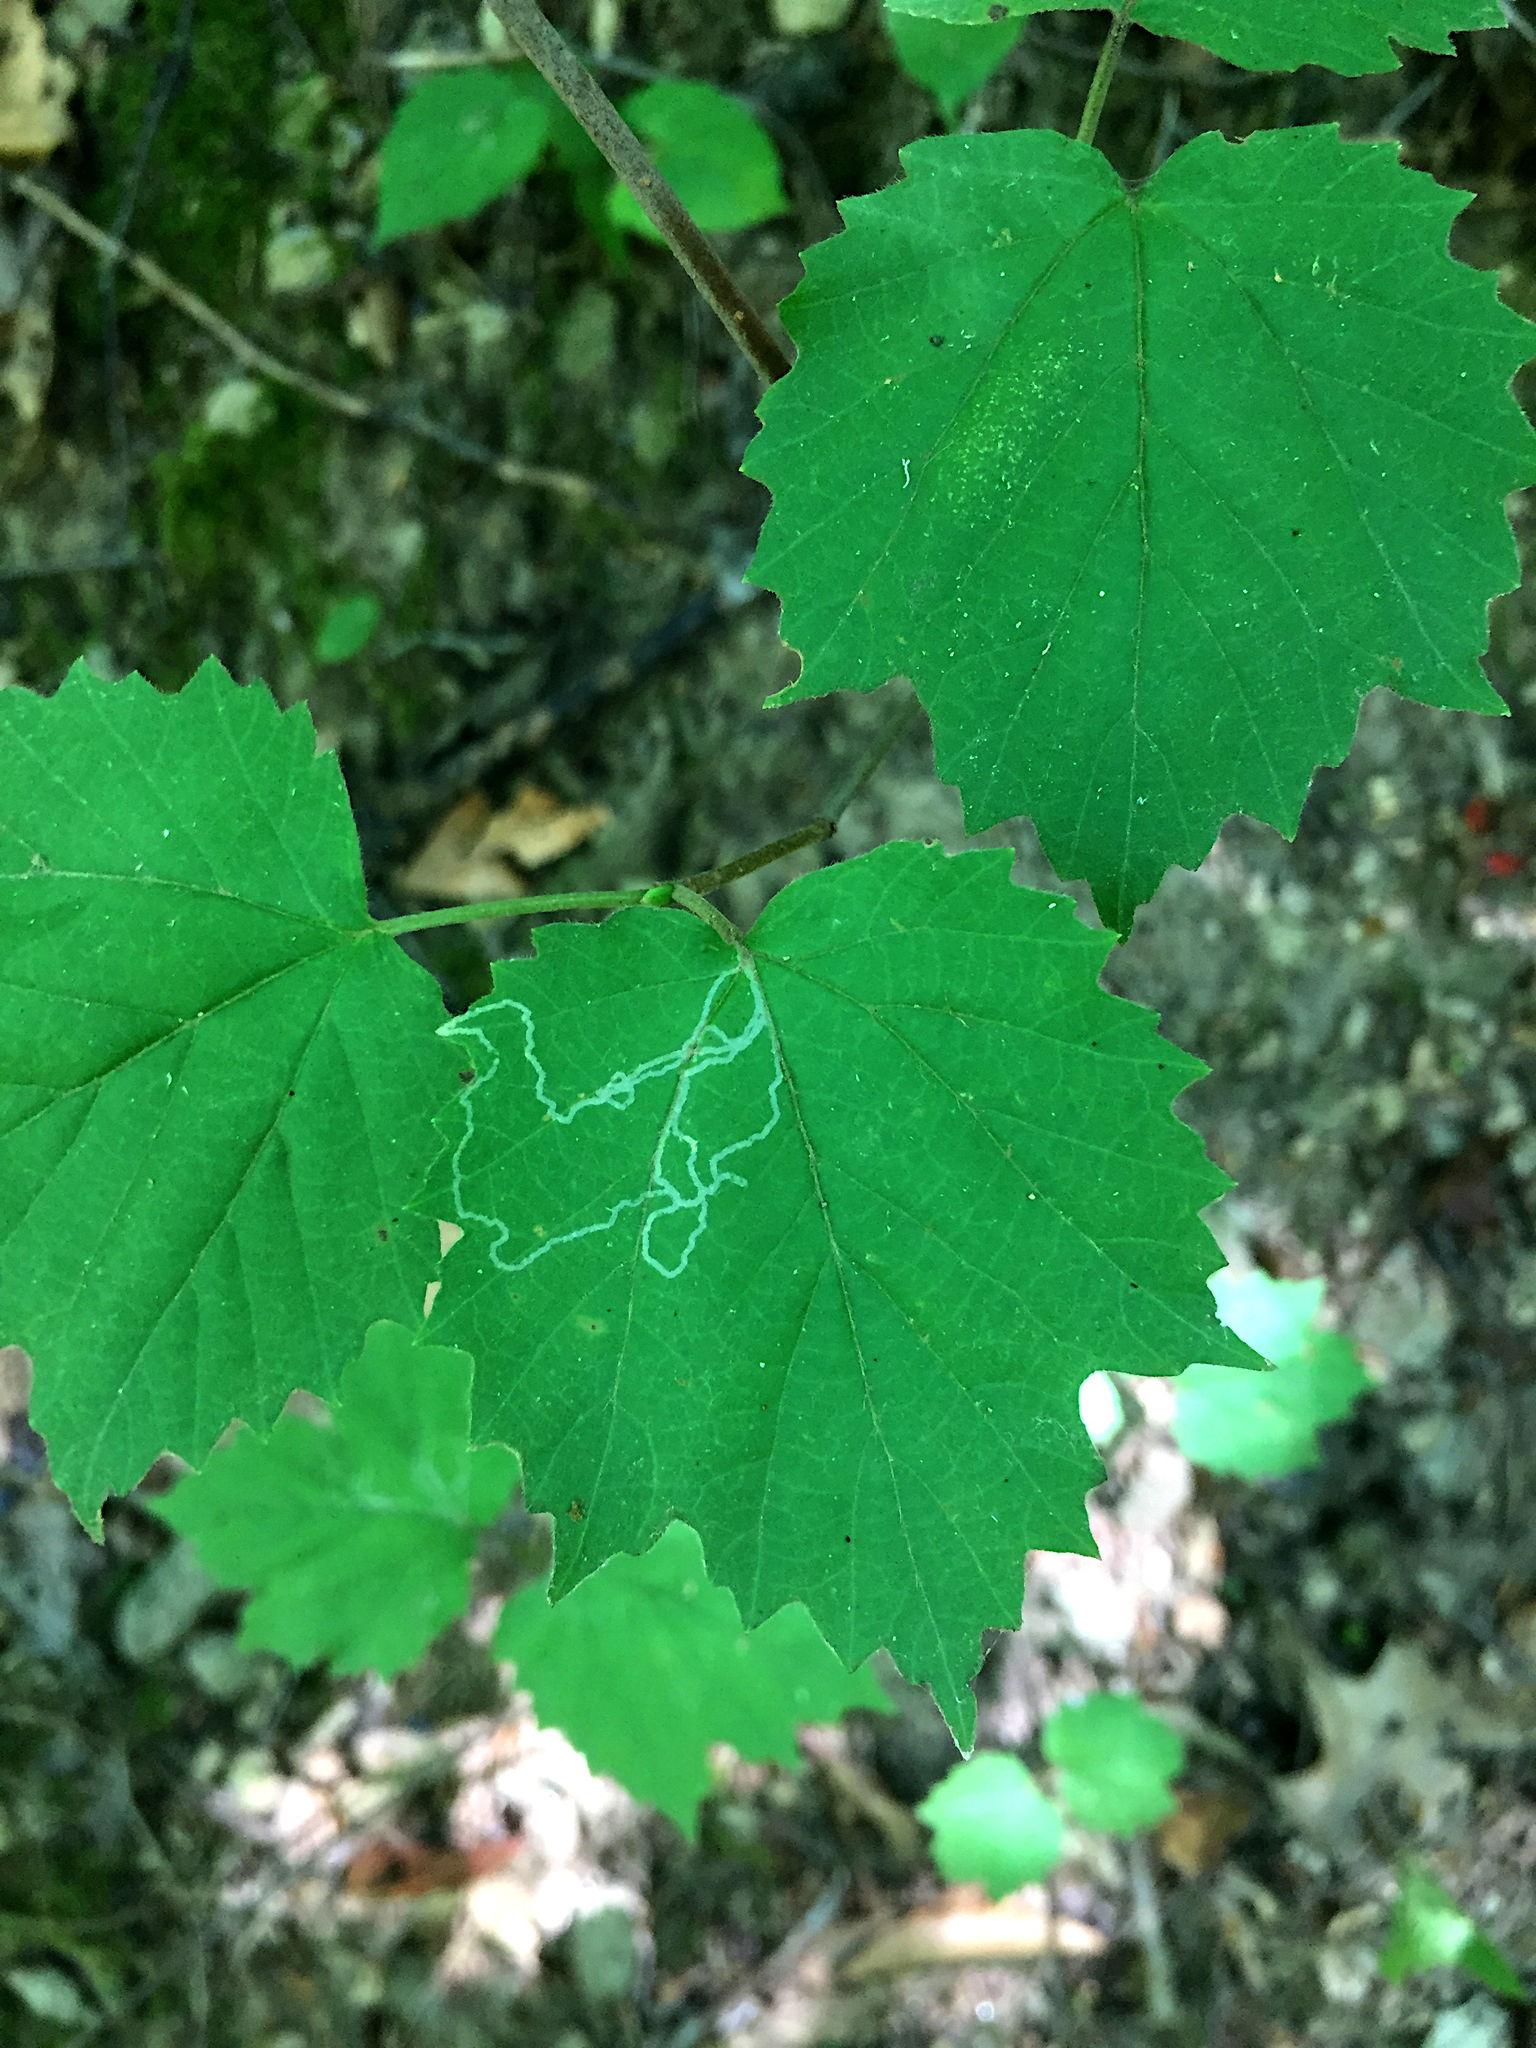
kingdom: Animalia
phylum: Arthropoda
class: Insecta
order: Lepidoptera
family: Gracillariidae
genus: Marmara
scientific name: Marmara viburnella
